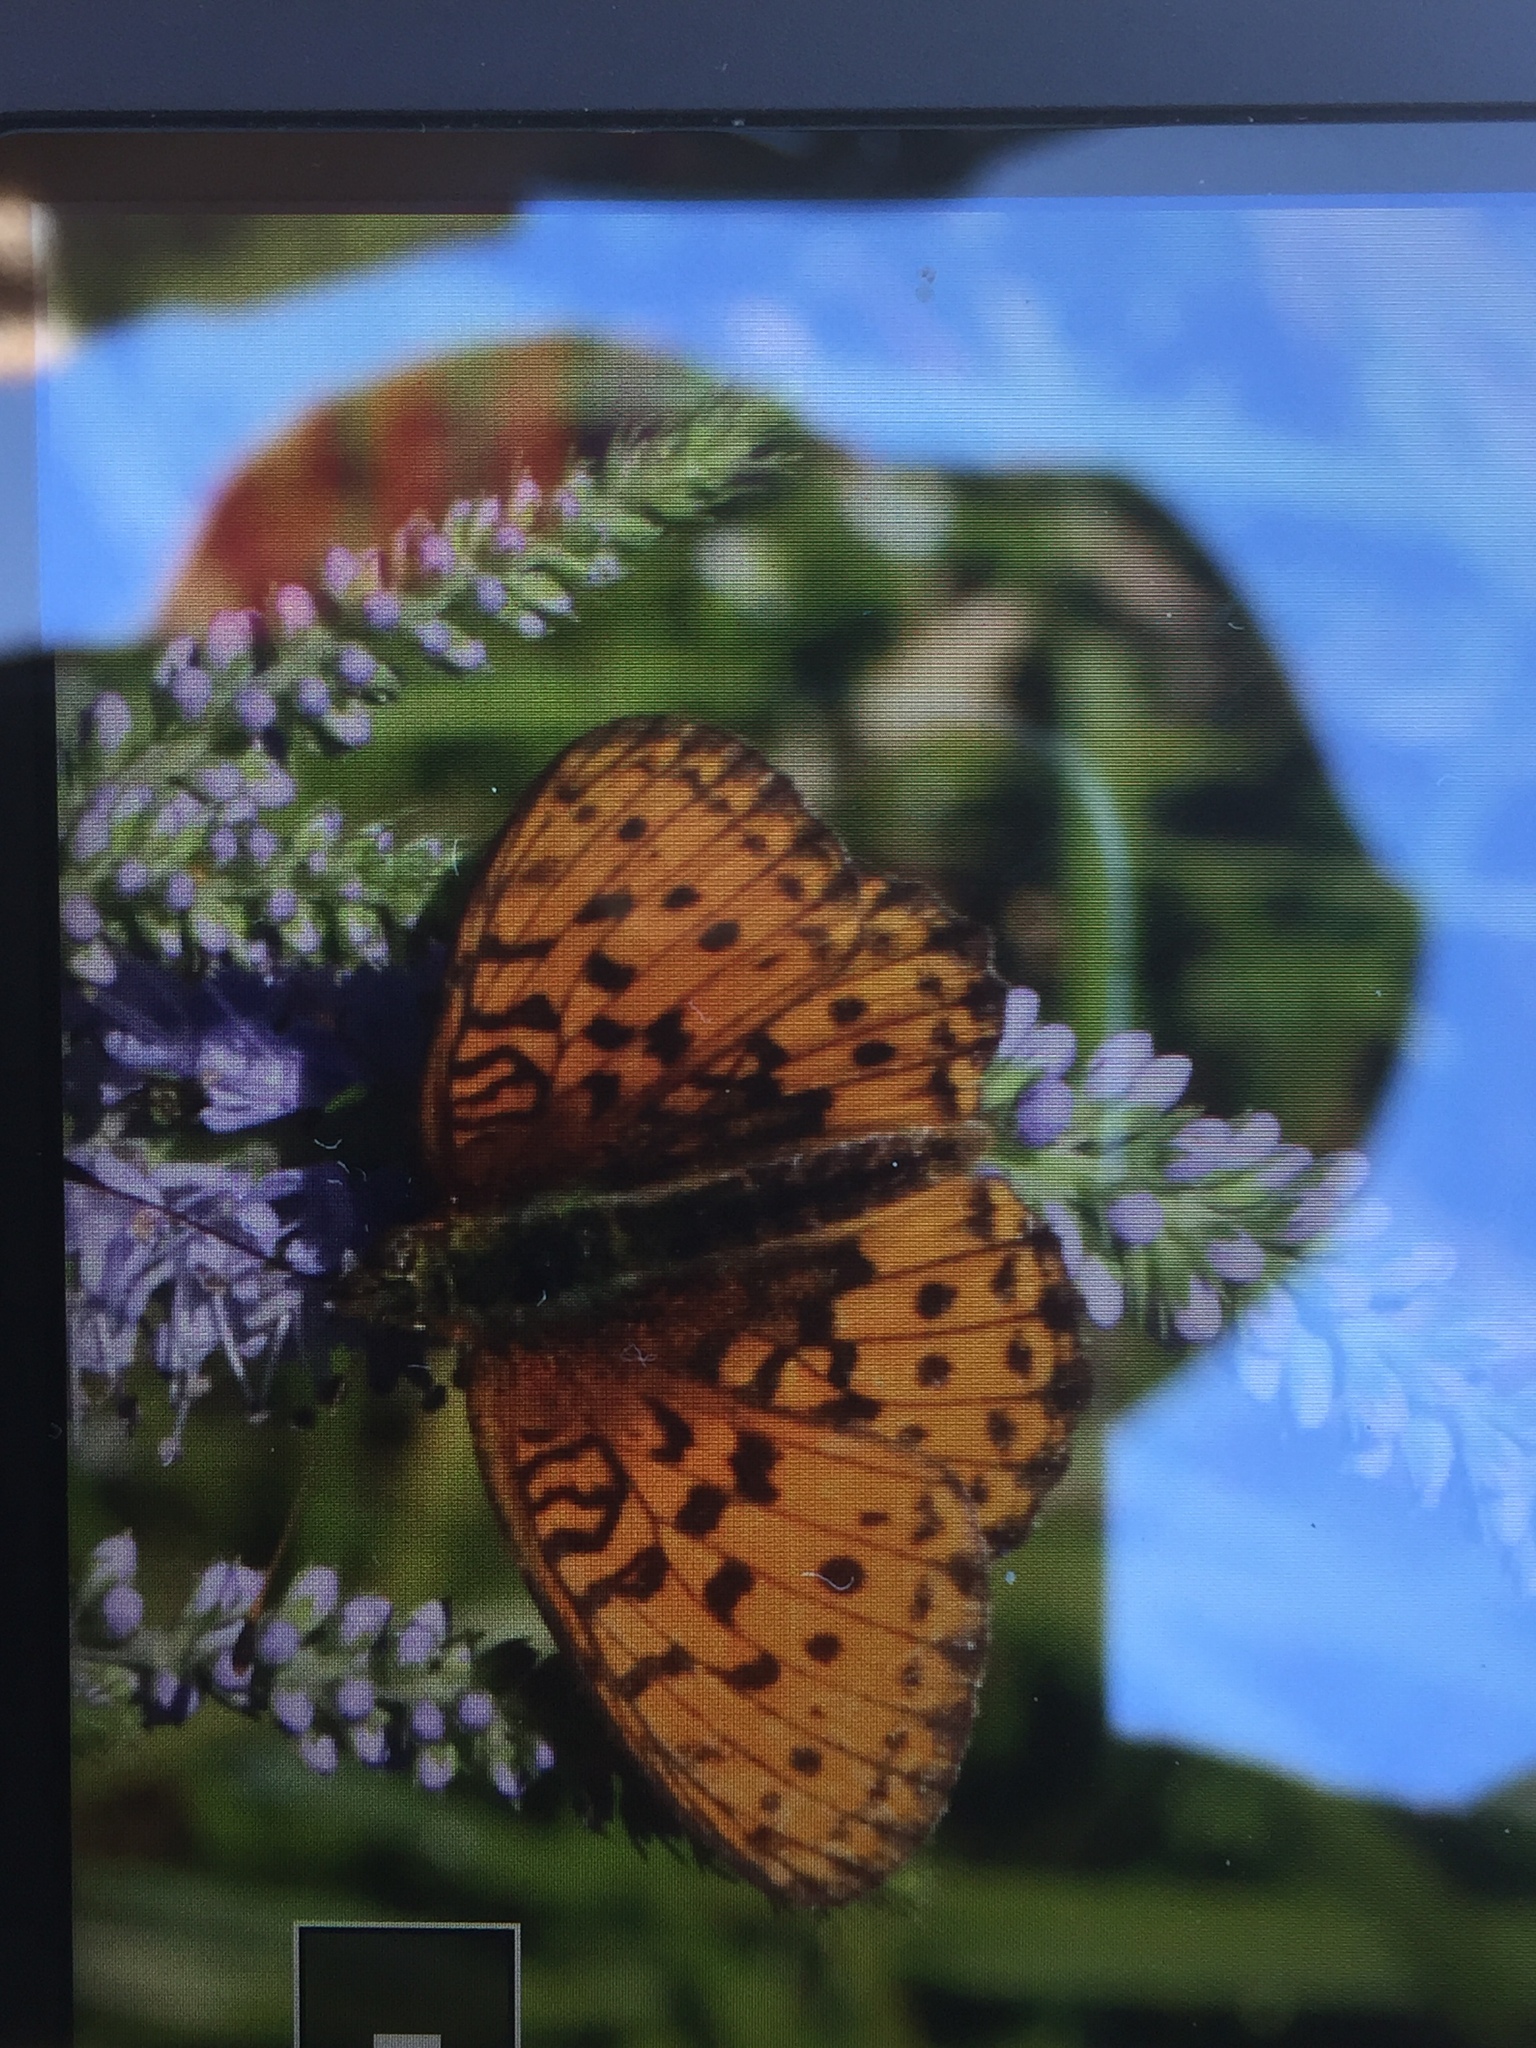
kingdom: Animalia
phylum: Arthropoda
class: Insecta
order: Lepidoptera
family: Nymphalidae
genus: Brenthis
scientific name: Brenthis ino
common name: Lesser marbled fritillary
